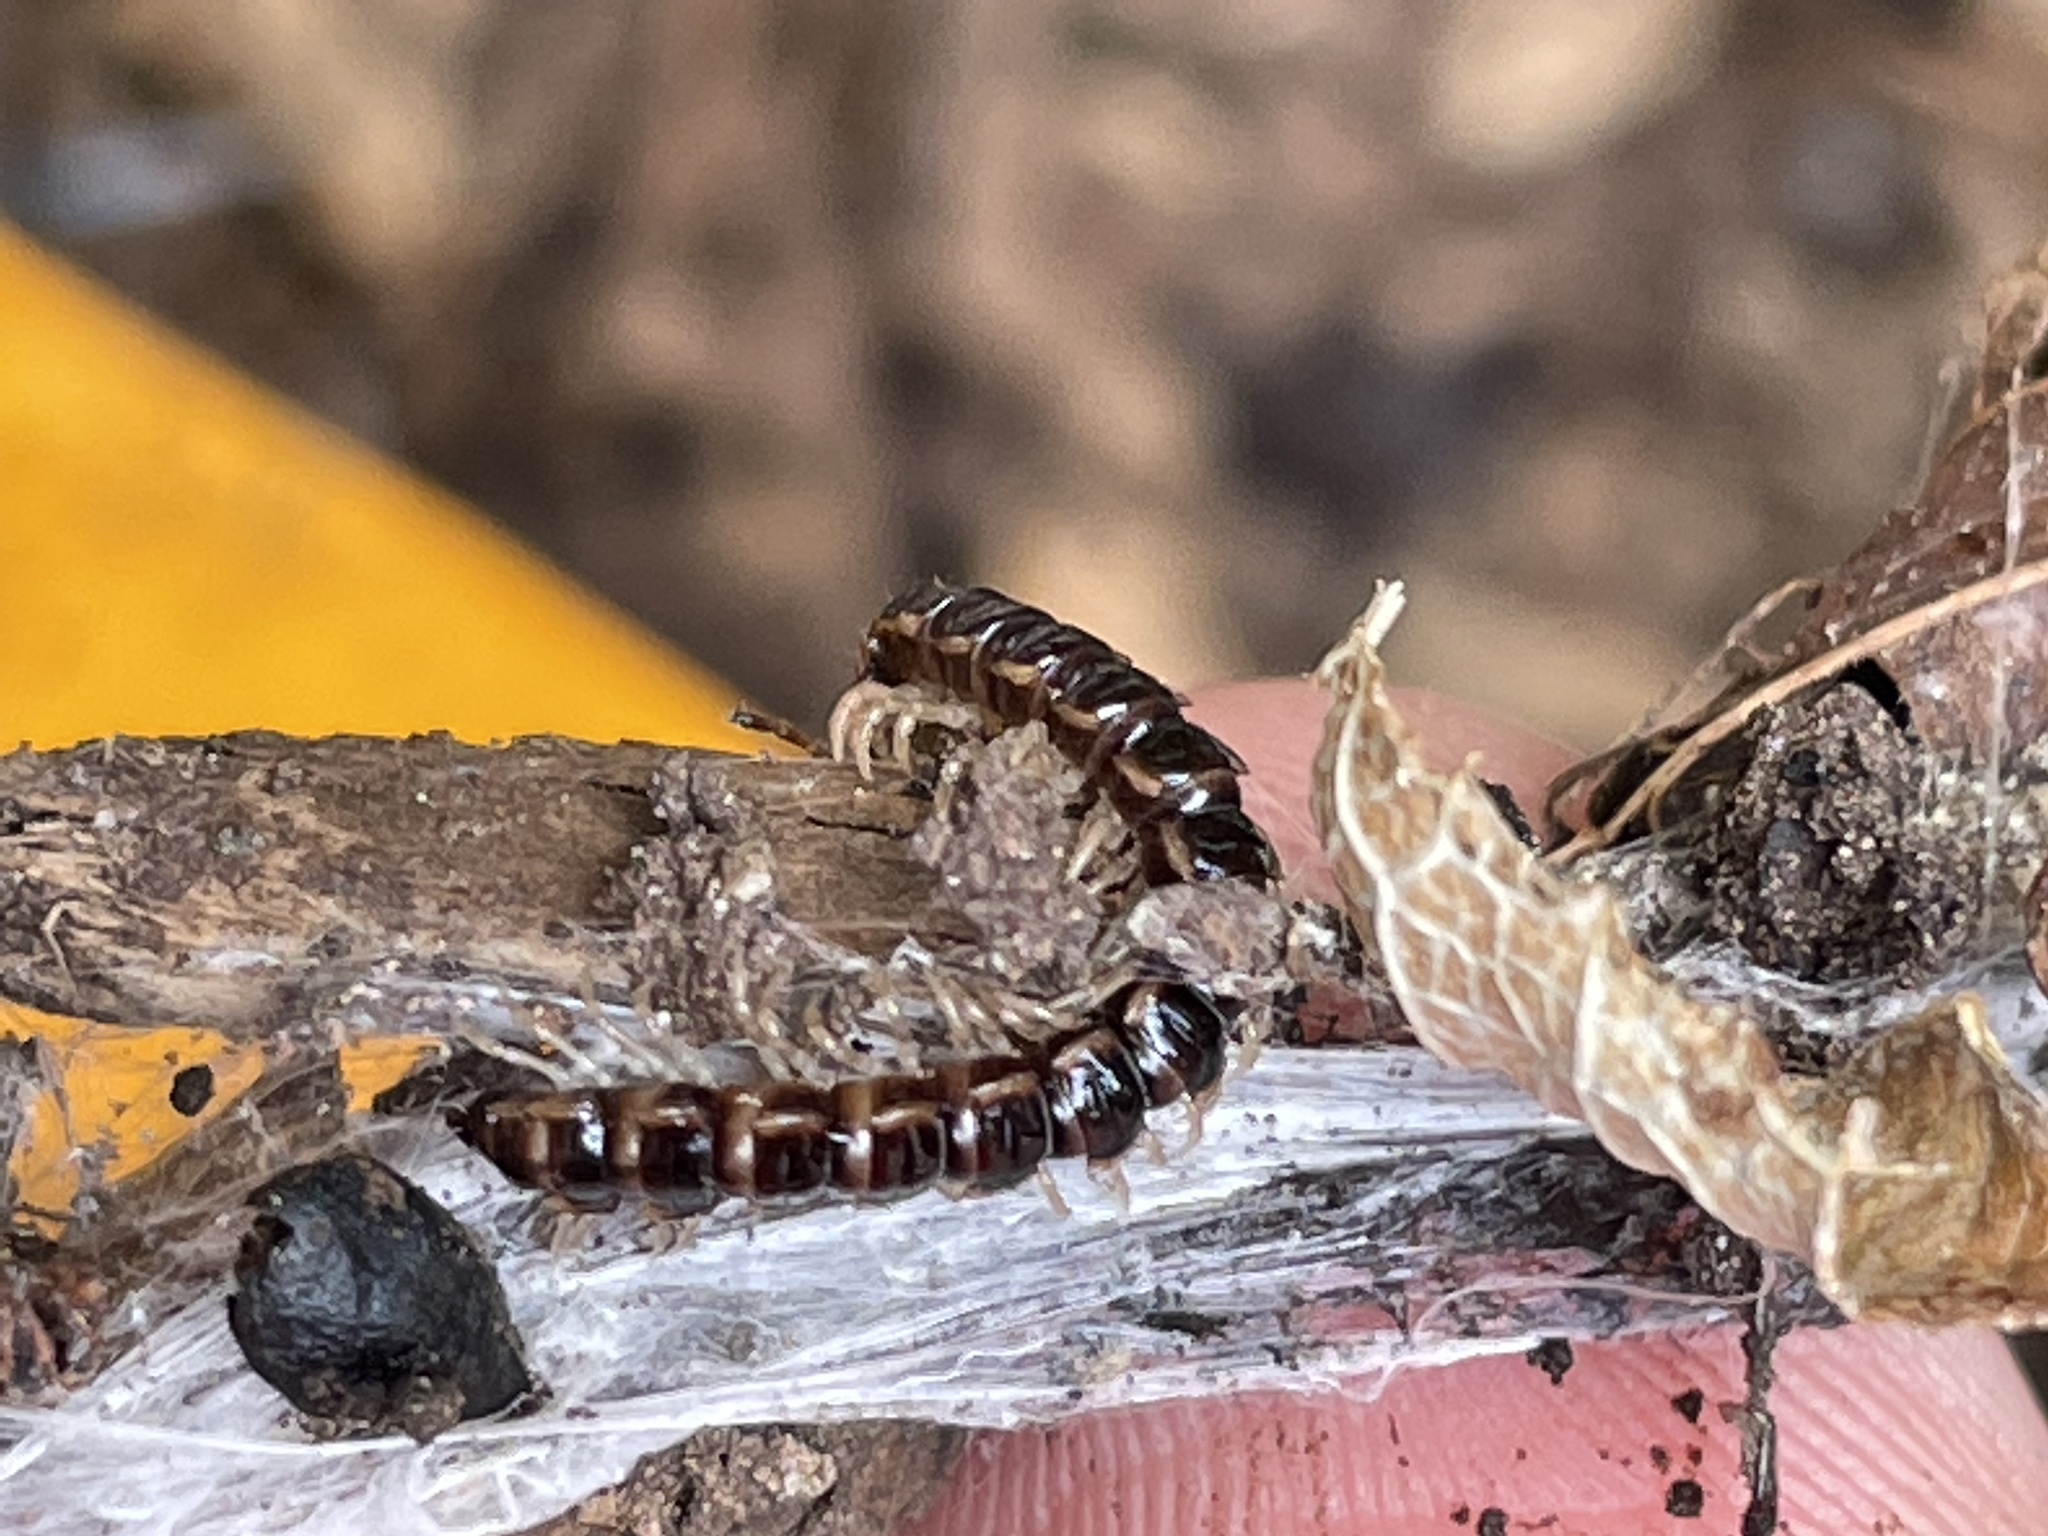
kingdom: Animalia
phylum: Arthropoda
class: Diplopoda
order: Polydesmida
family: Paradoxosomatidae
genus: Oxidus
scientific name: Oxidus gracilis
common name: Greenhouse millipede
